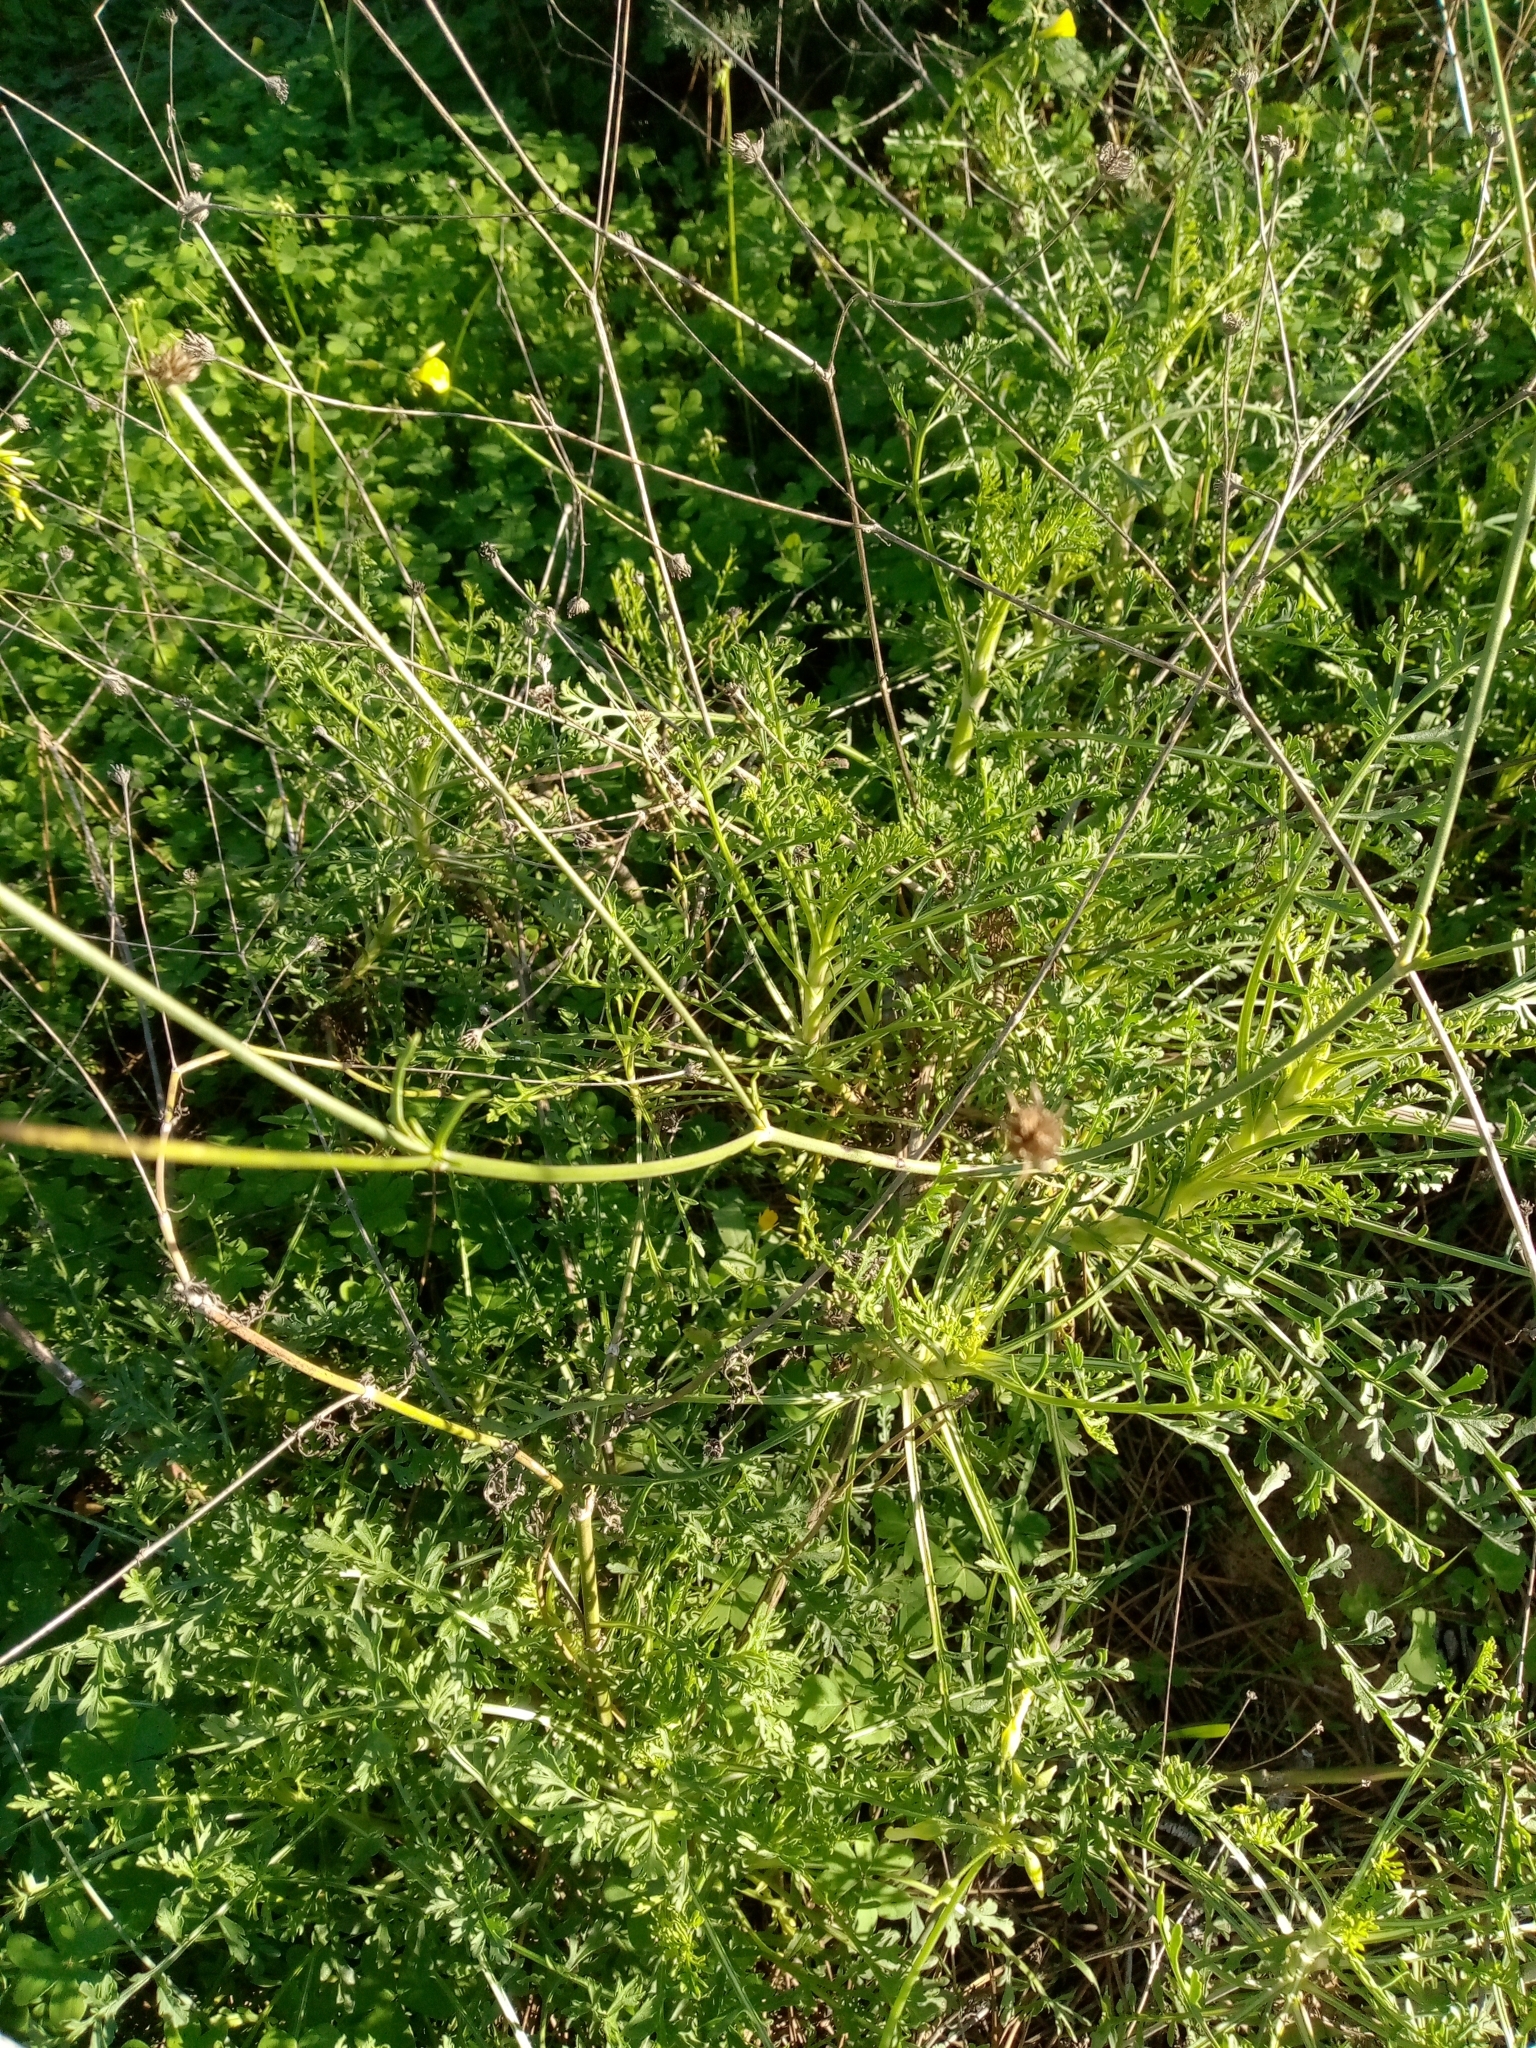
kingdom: Plantae
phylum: Tracheophyta
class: Magnoliopsida
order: Dipsacales
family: Caprifoliaceae
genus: Pycnocomon
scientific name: Pycnocomon rutifolium
